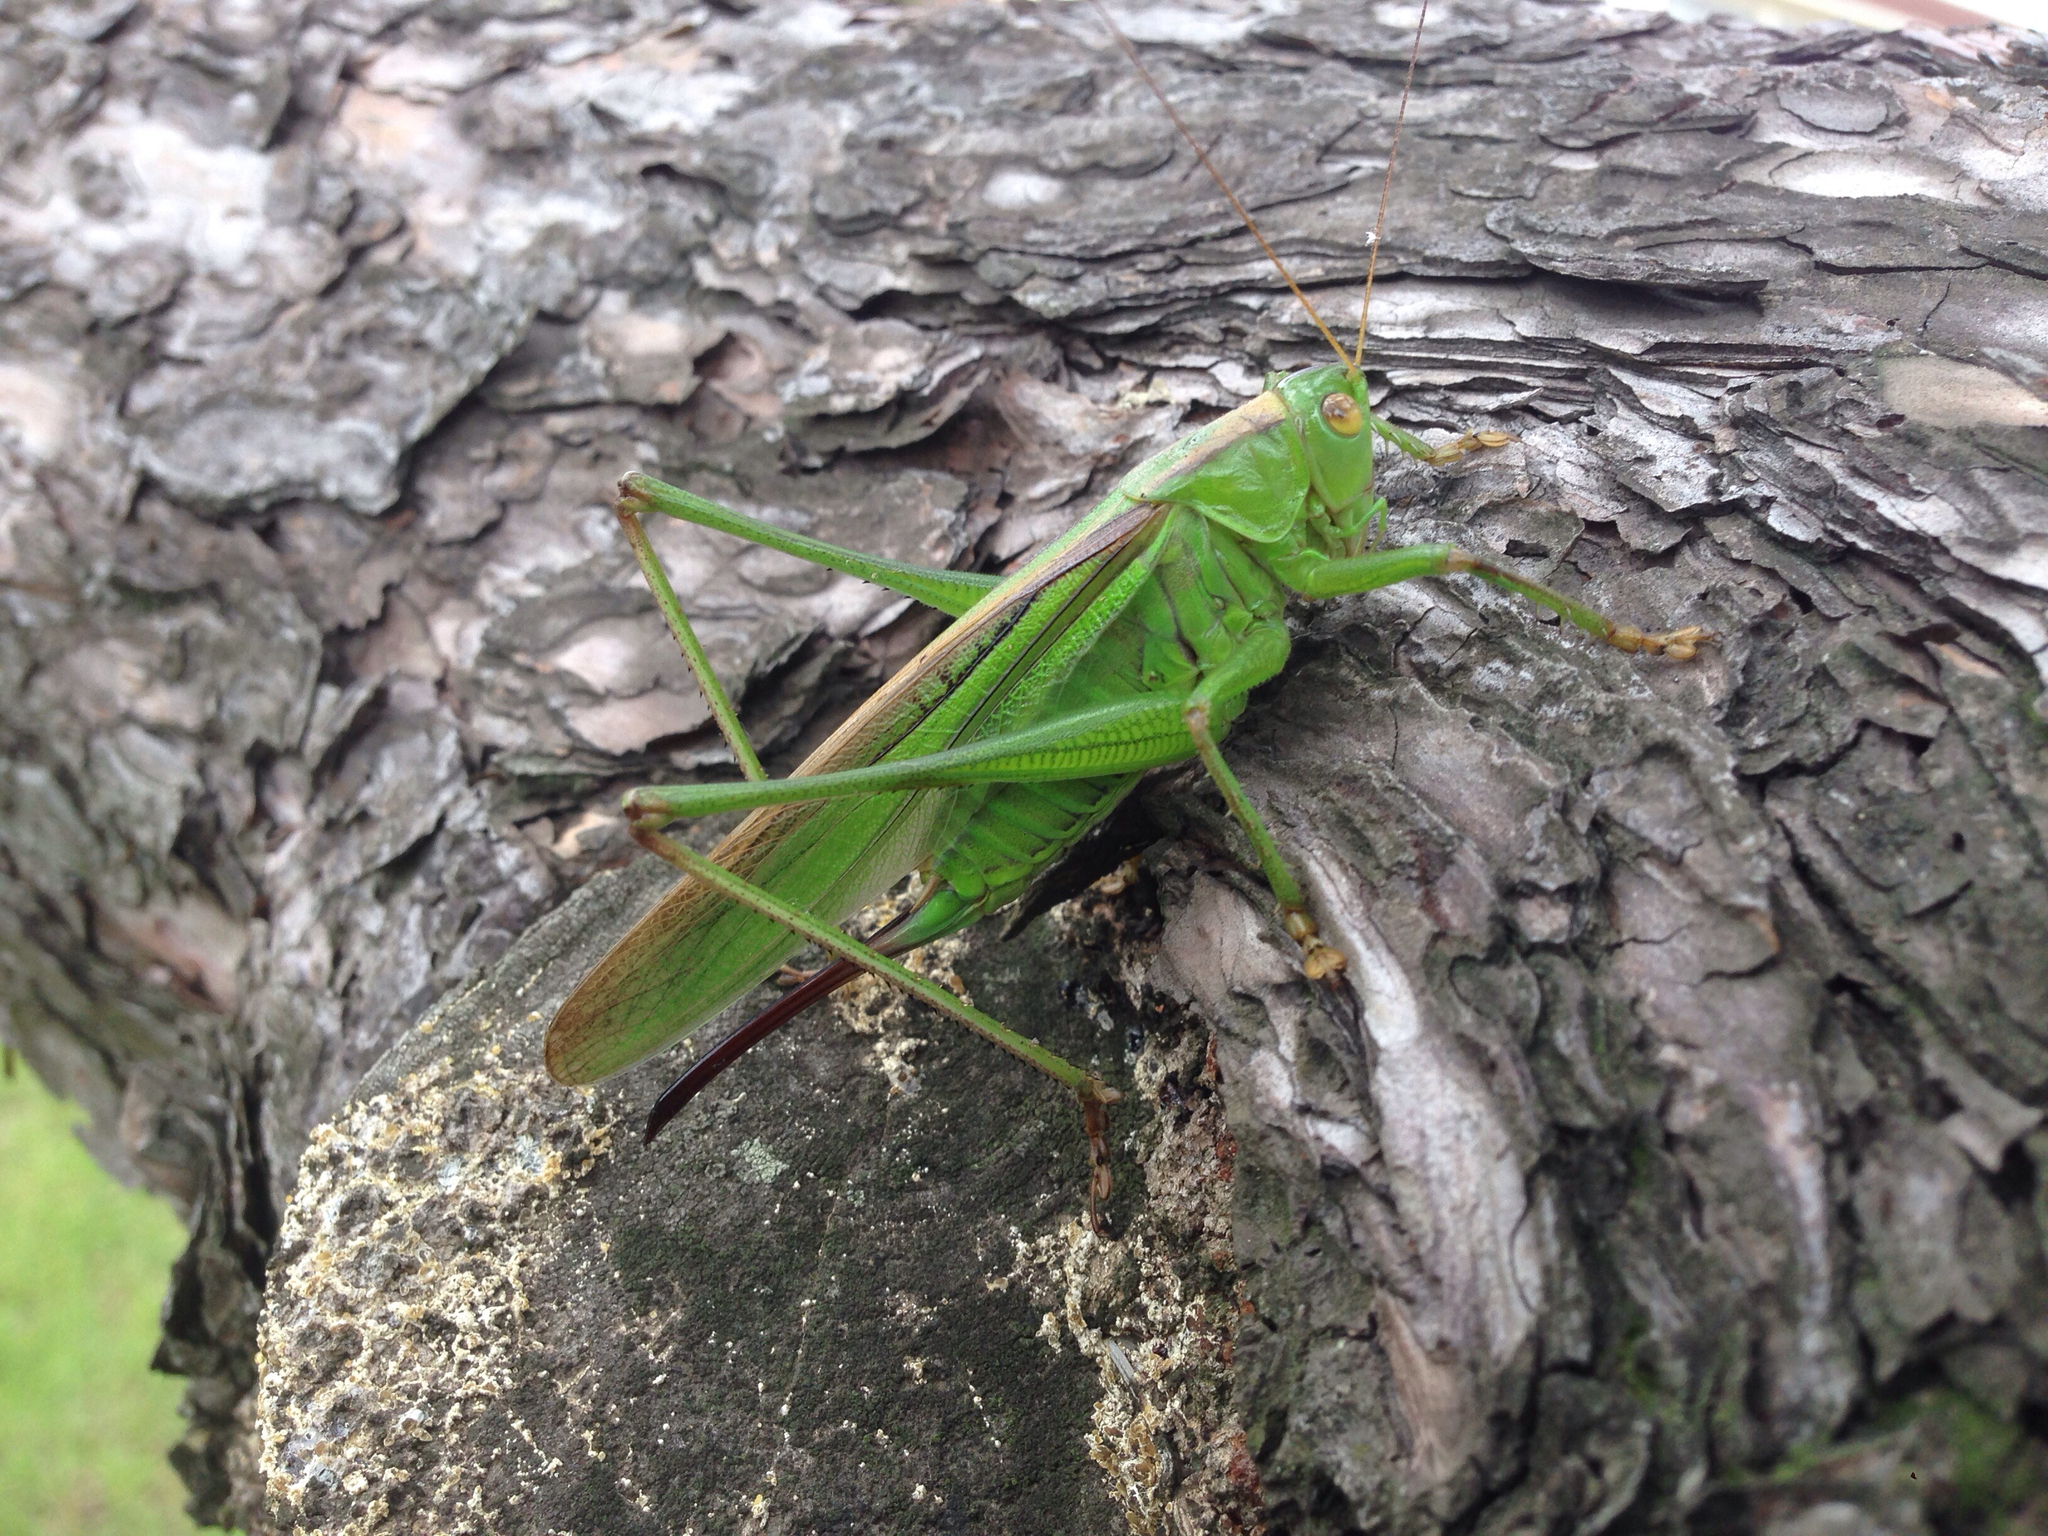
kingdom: Animalia
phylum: Arthropoda
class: Insecta
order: Orthoptera
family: Tettigoniidae
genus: Gampsocleis
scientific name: Gampsocleis ussuriensis
